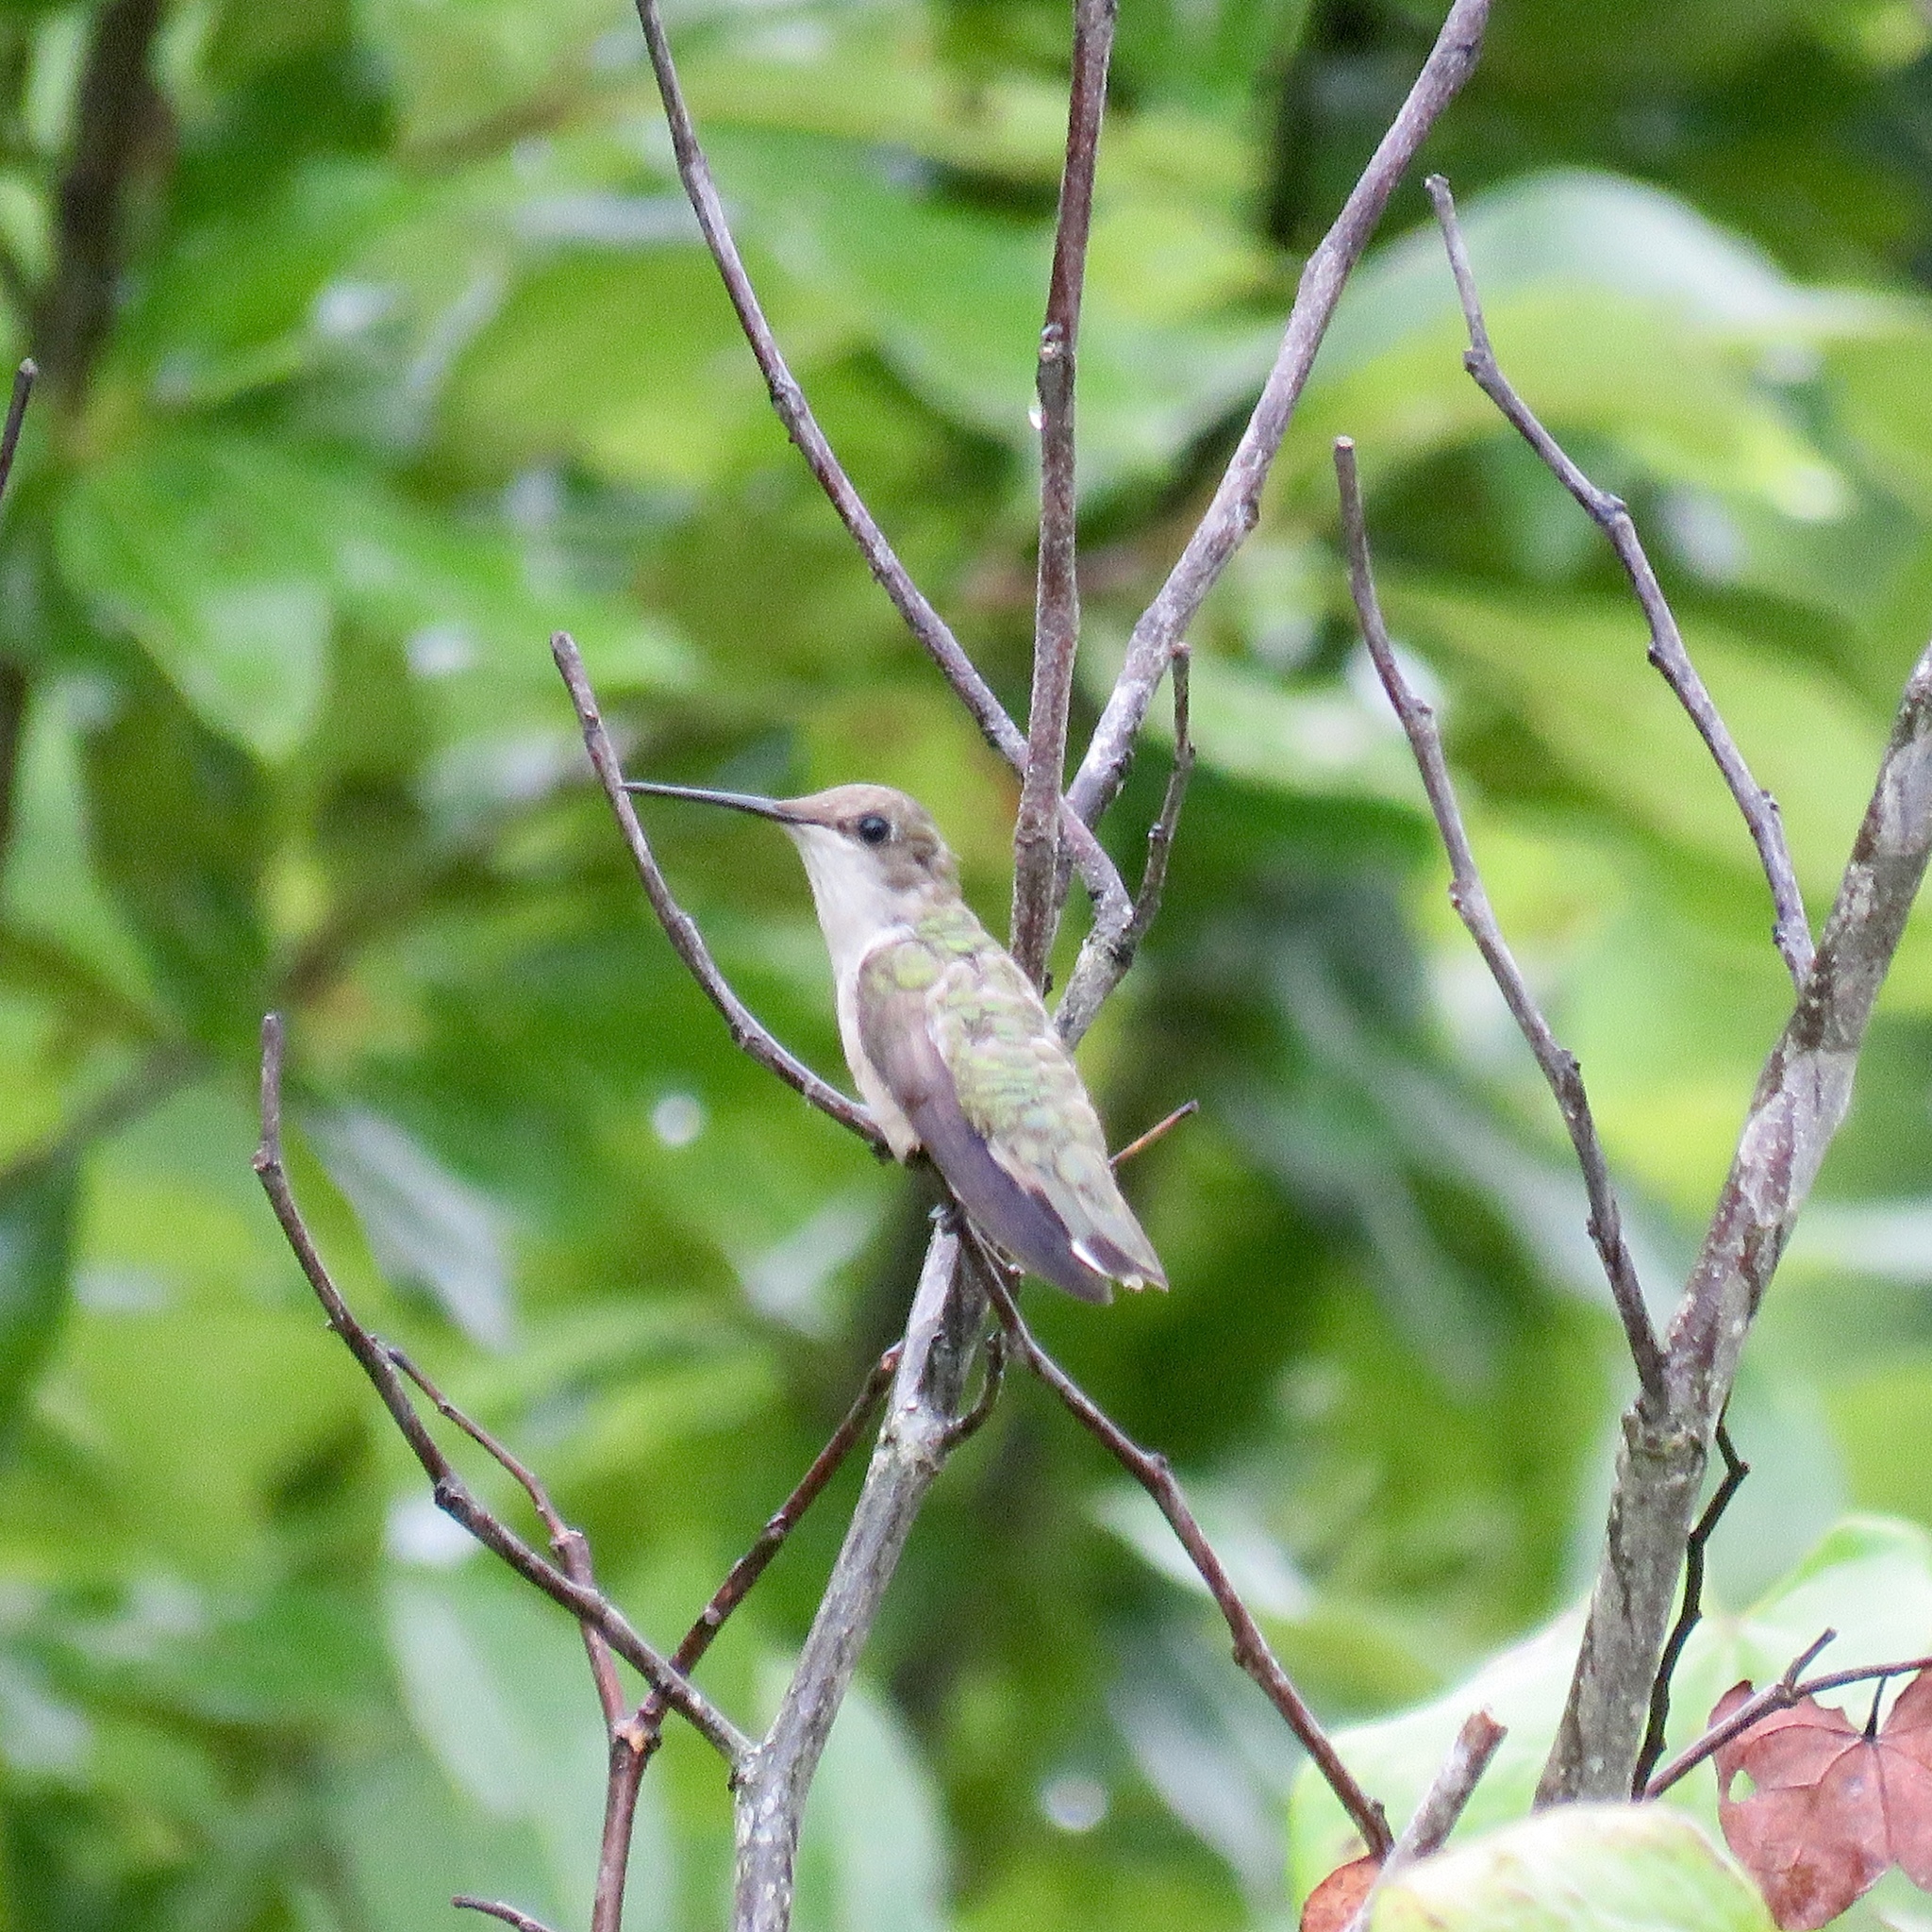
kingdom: Animalia
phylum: Chordata
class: Aves
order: Apodiformes
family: Trochilidae
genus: Archilochus
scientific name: Archilochus colubris
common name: Ruby-throated hummingbird
